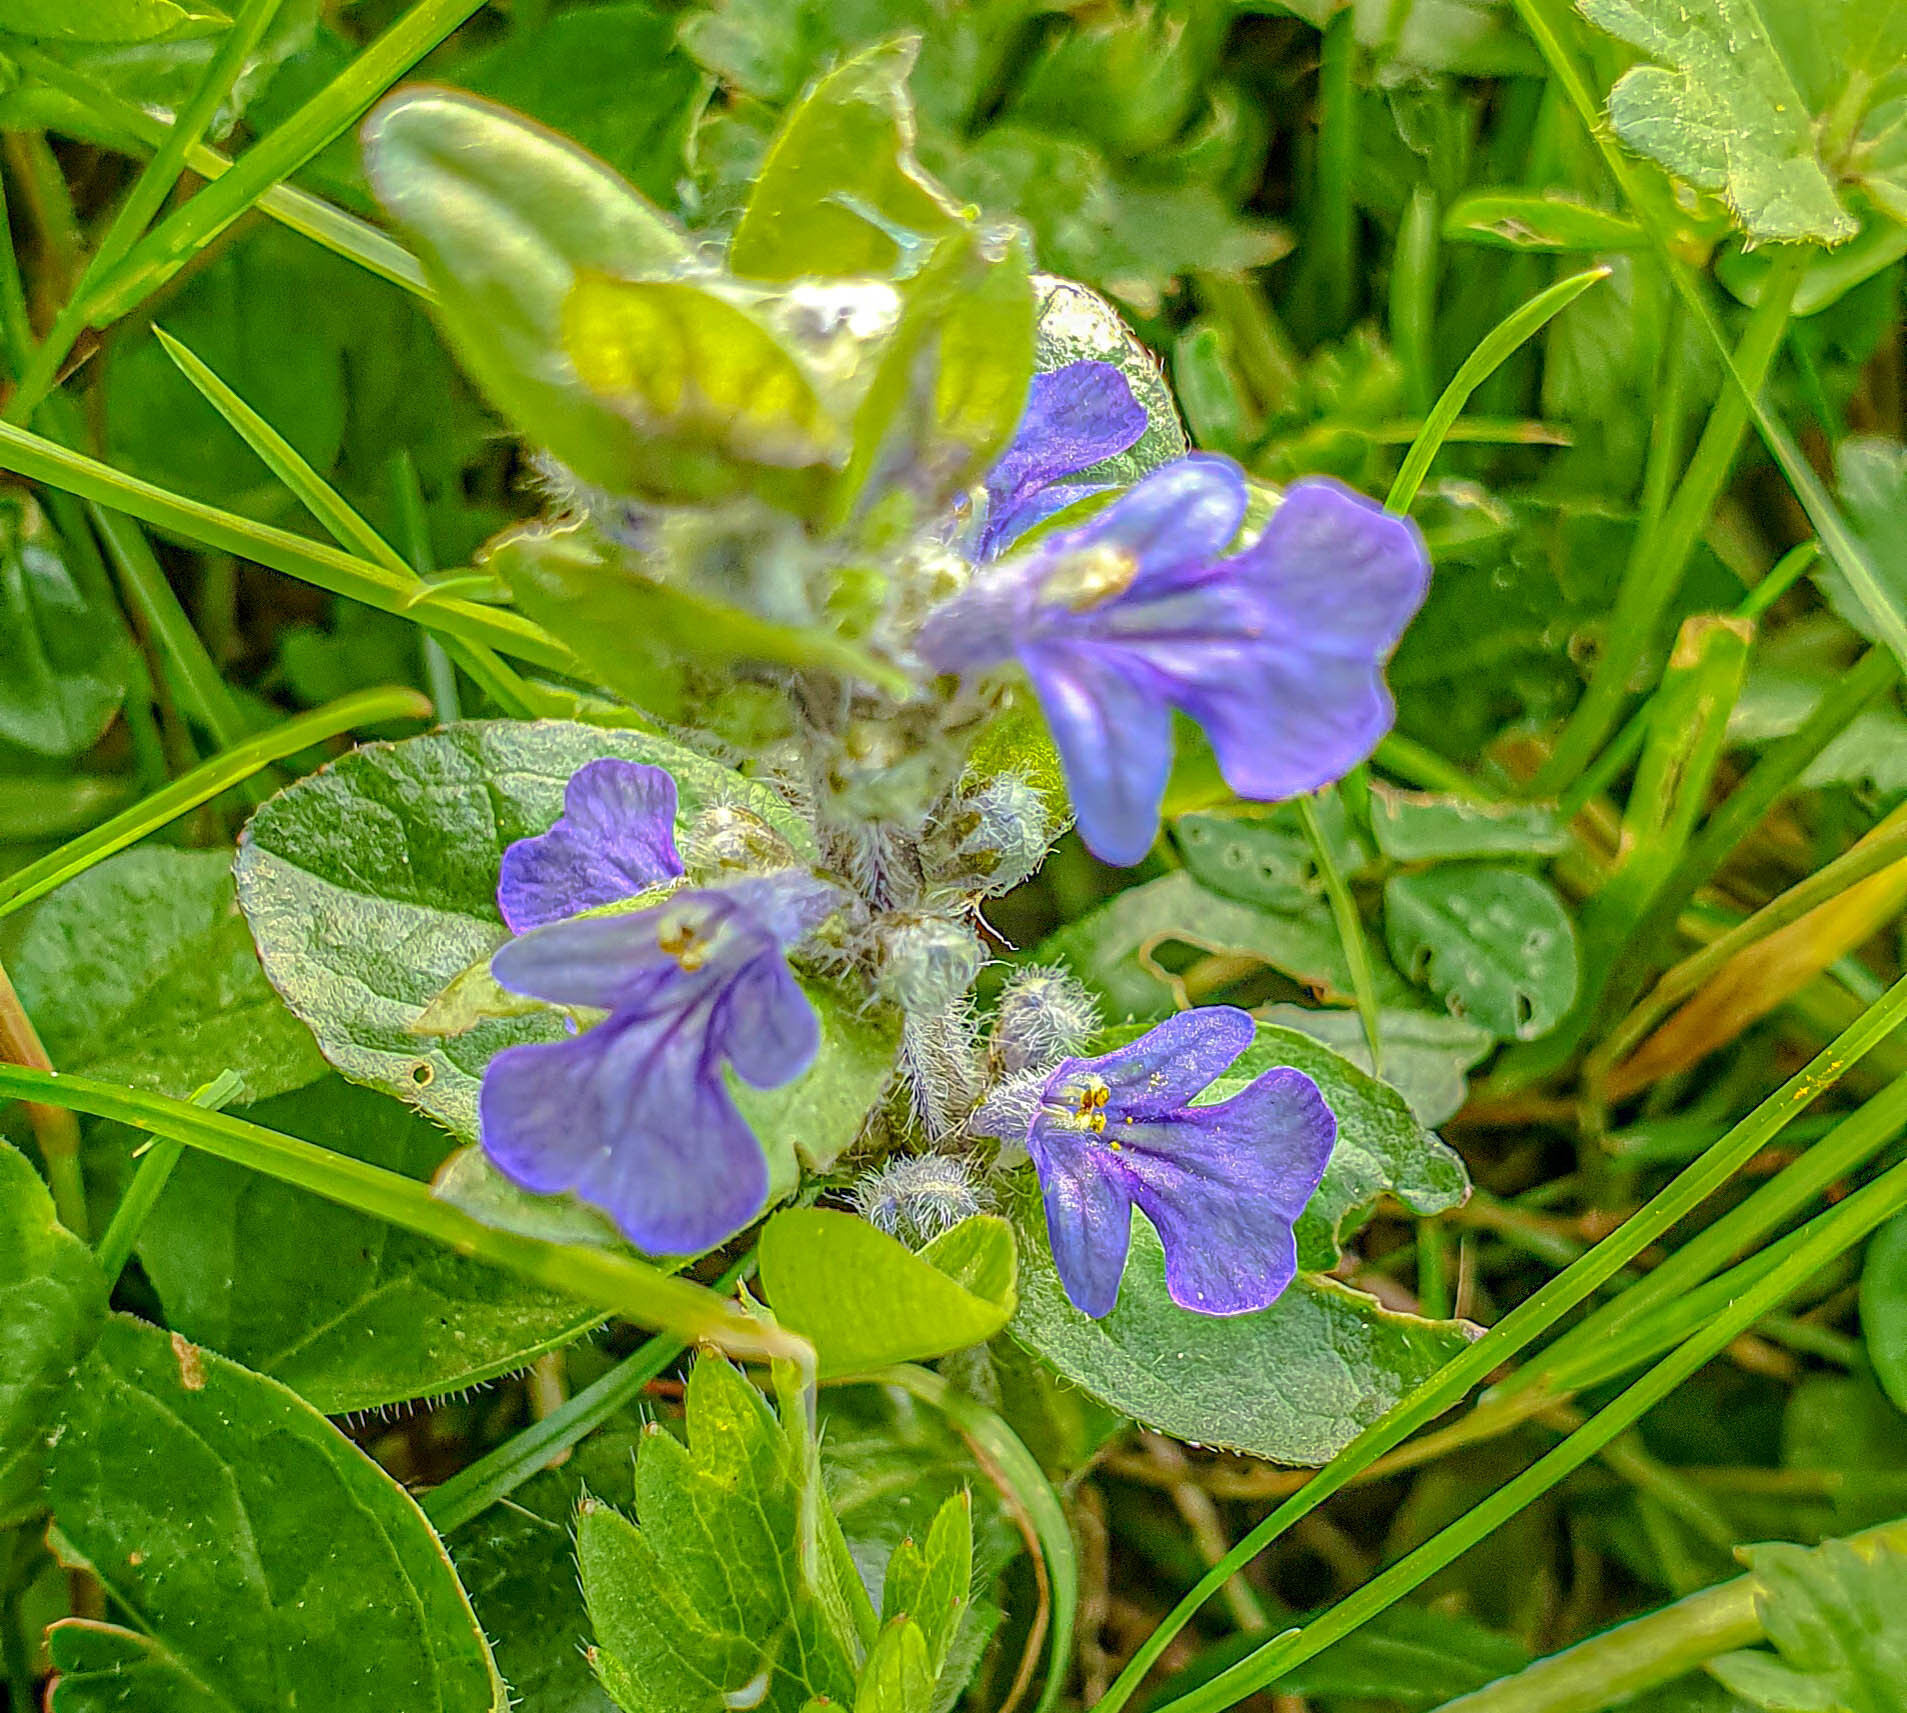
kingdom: Plantae
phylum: Tracheophyta
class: Magnoliopsida
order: Lamiales
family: Lamiaceae
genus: Ajuga
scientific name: Ajuga reptans
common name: Bugle
